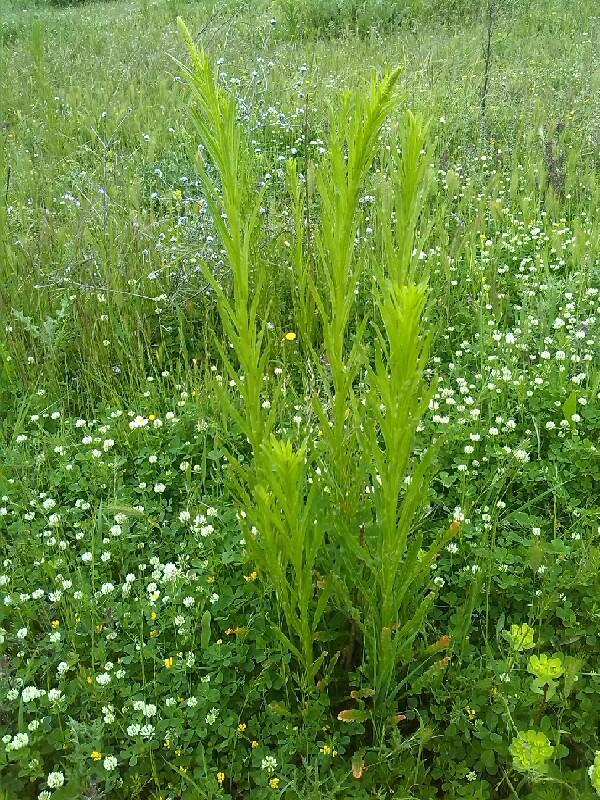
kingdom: Plantae
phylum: Tracheophyta
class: Magnoliopsida
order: Brassicales
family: Resedaceae
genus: Reseda
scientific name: Reseda luteola
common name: Weld
